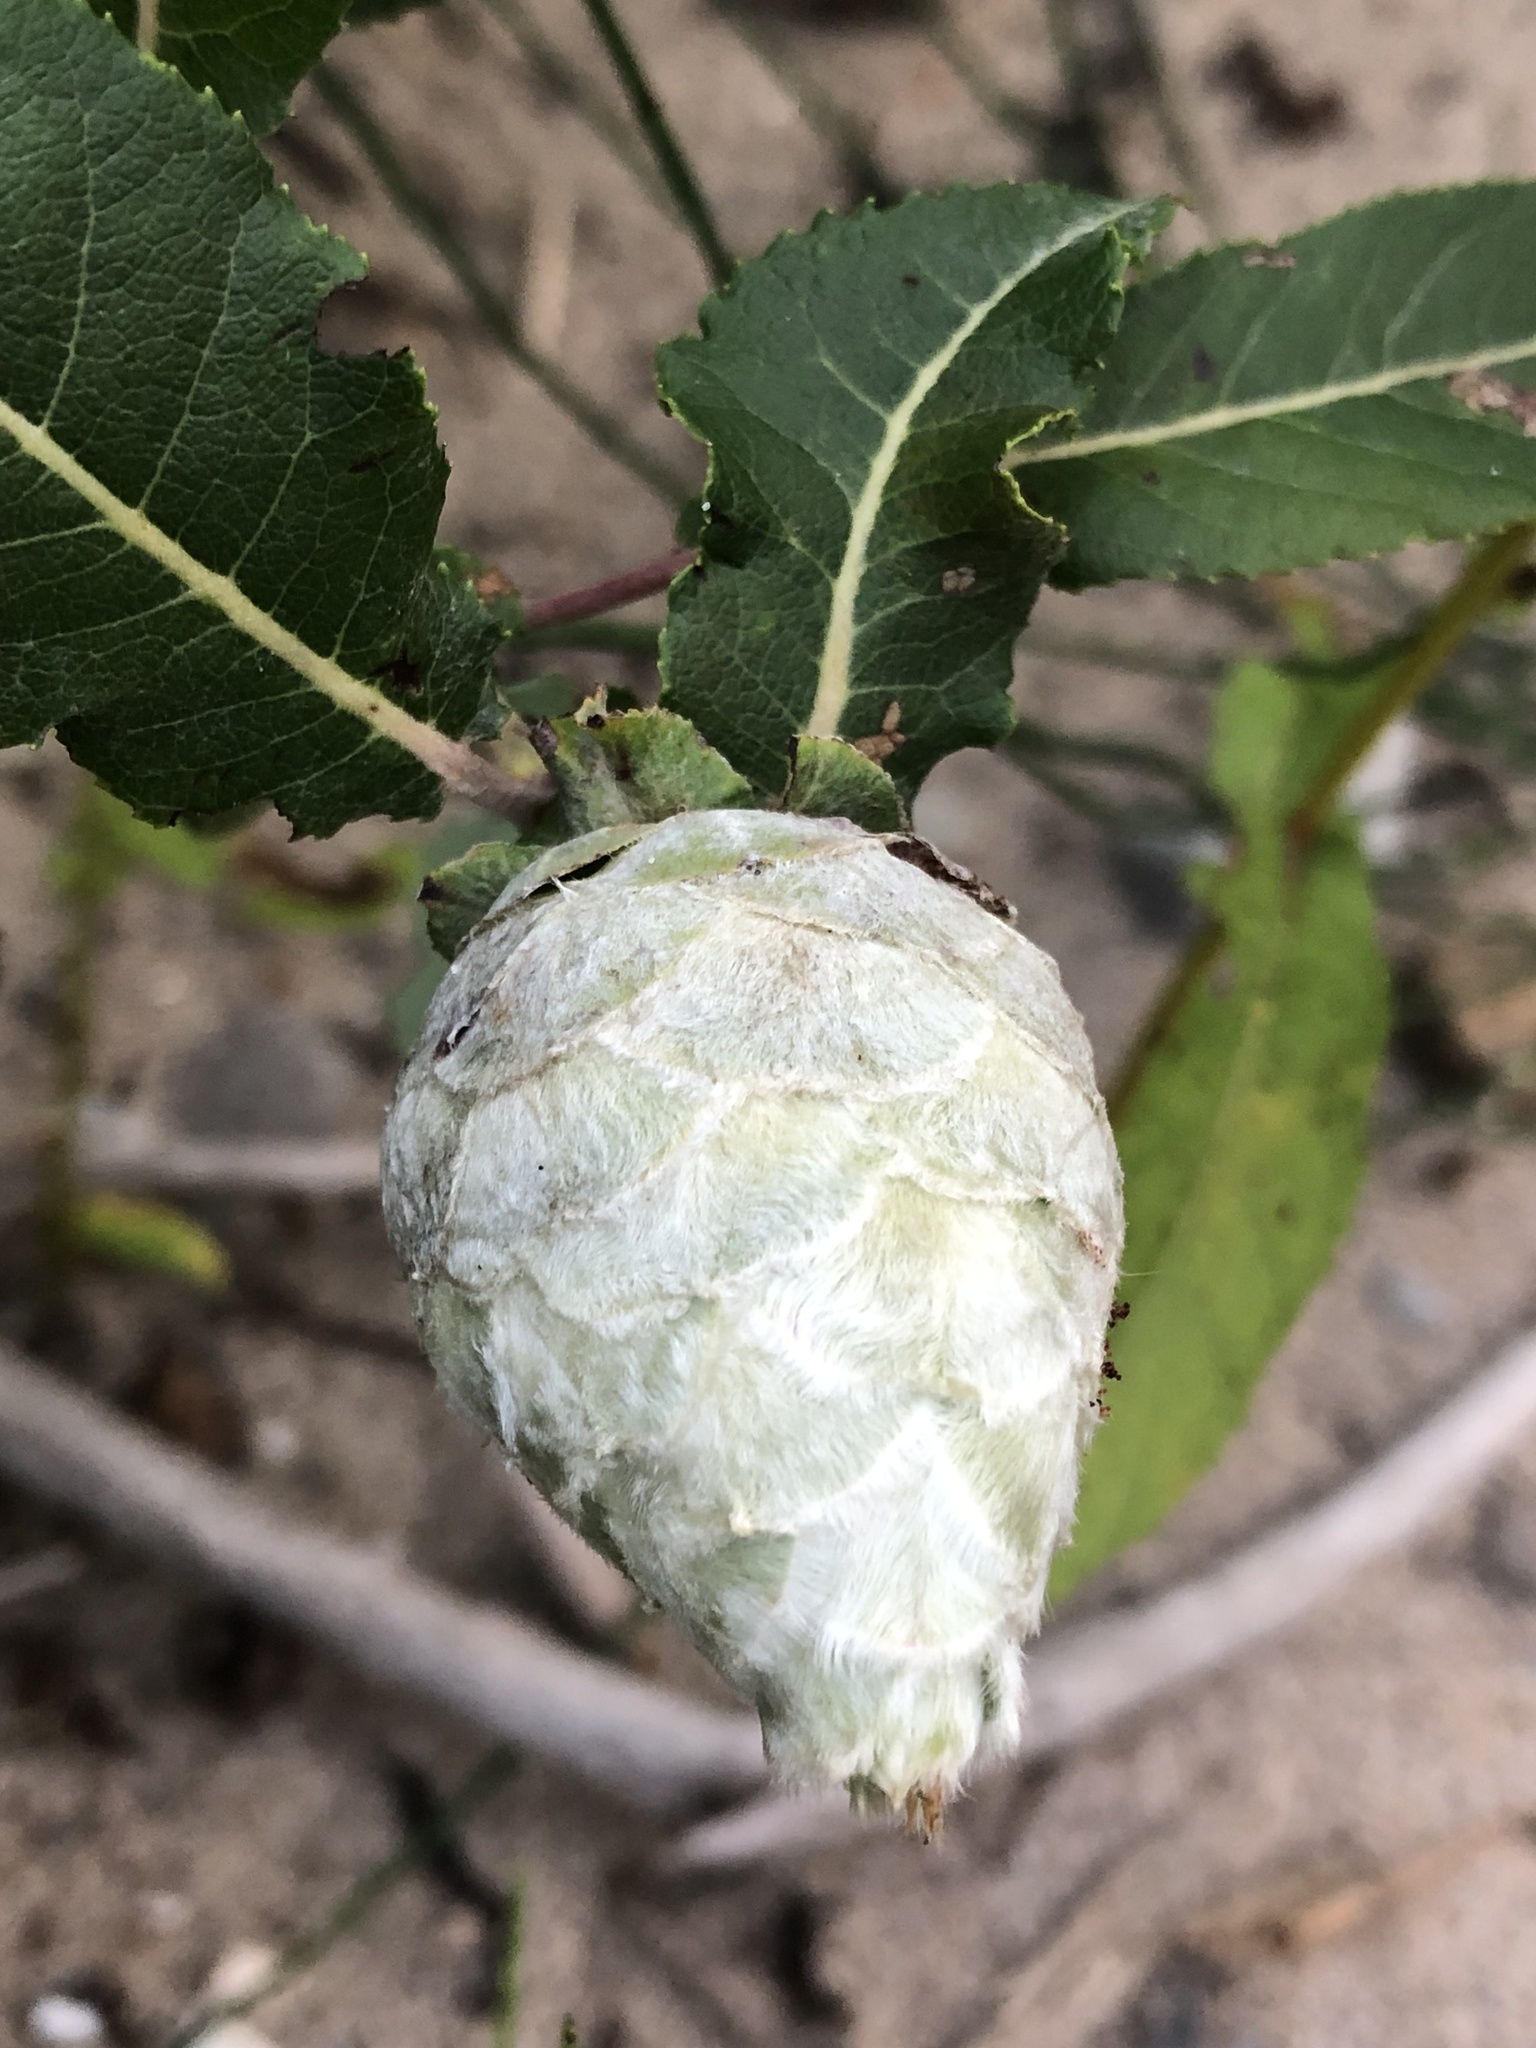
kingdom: Animalia
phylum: Arthropoda
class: Insecta
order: Diptera
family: Cecidomyiidae
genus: Rabdophaga
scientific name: Rabdophaga strobiloides
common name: Willow pinecone gall midge
